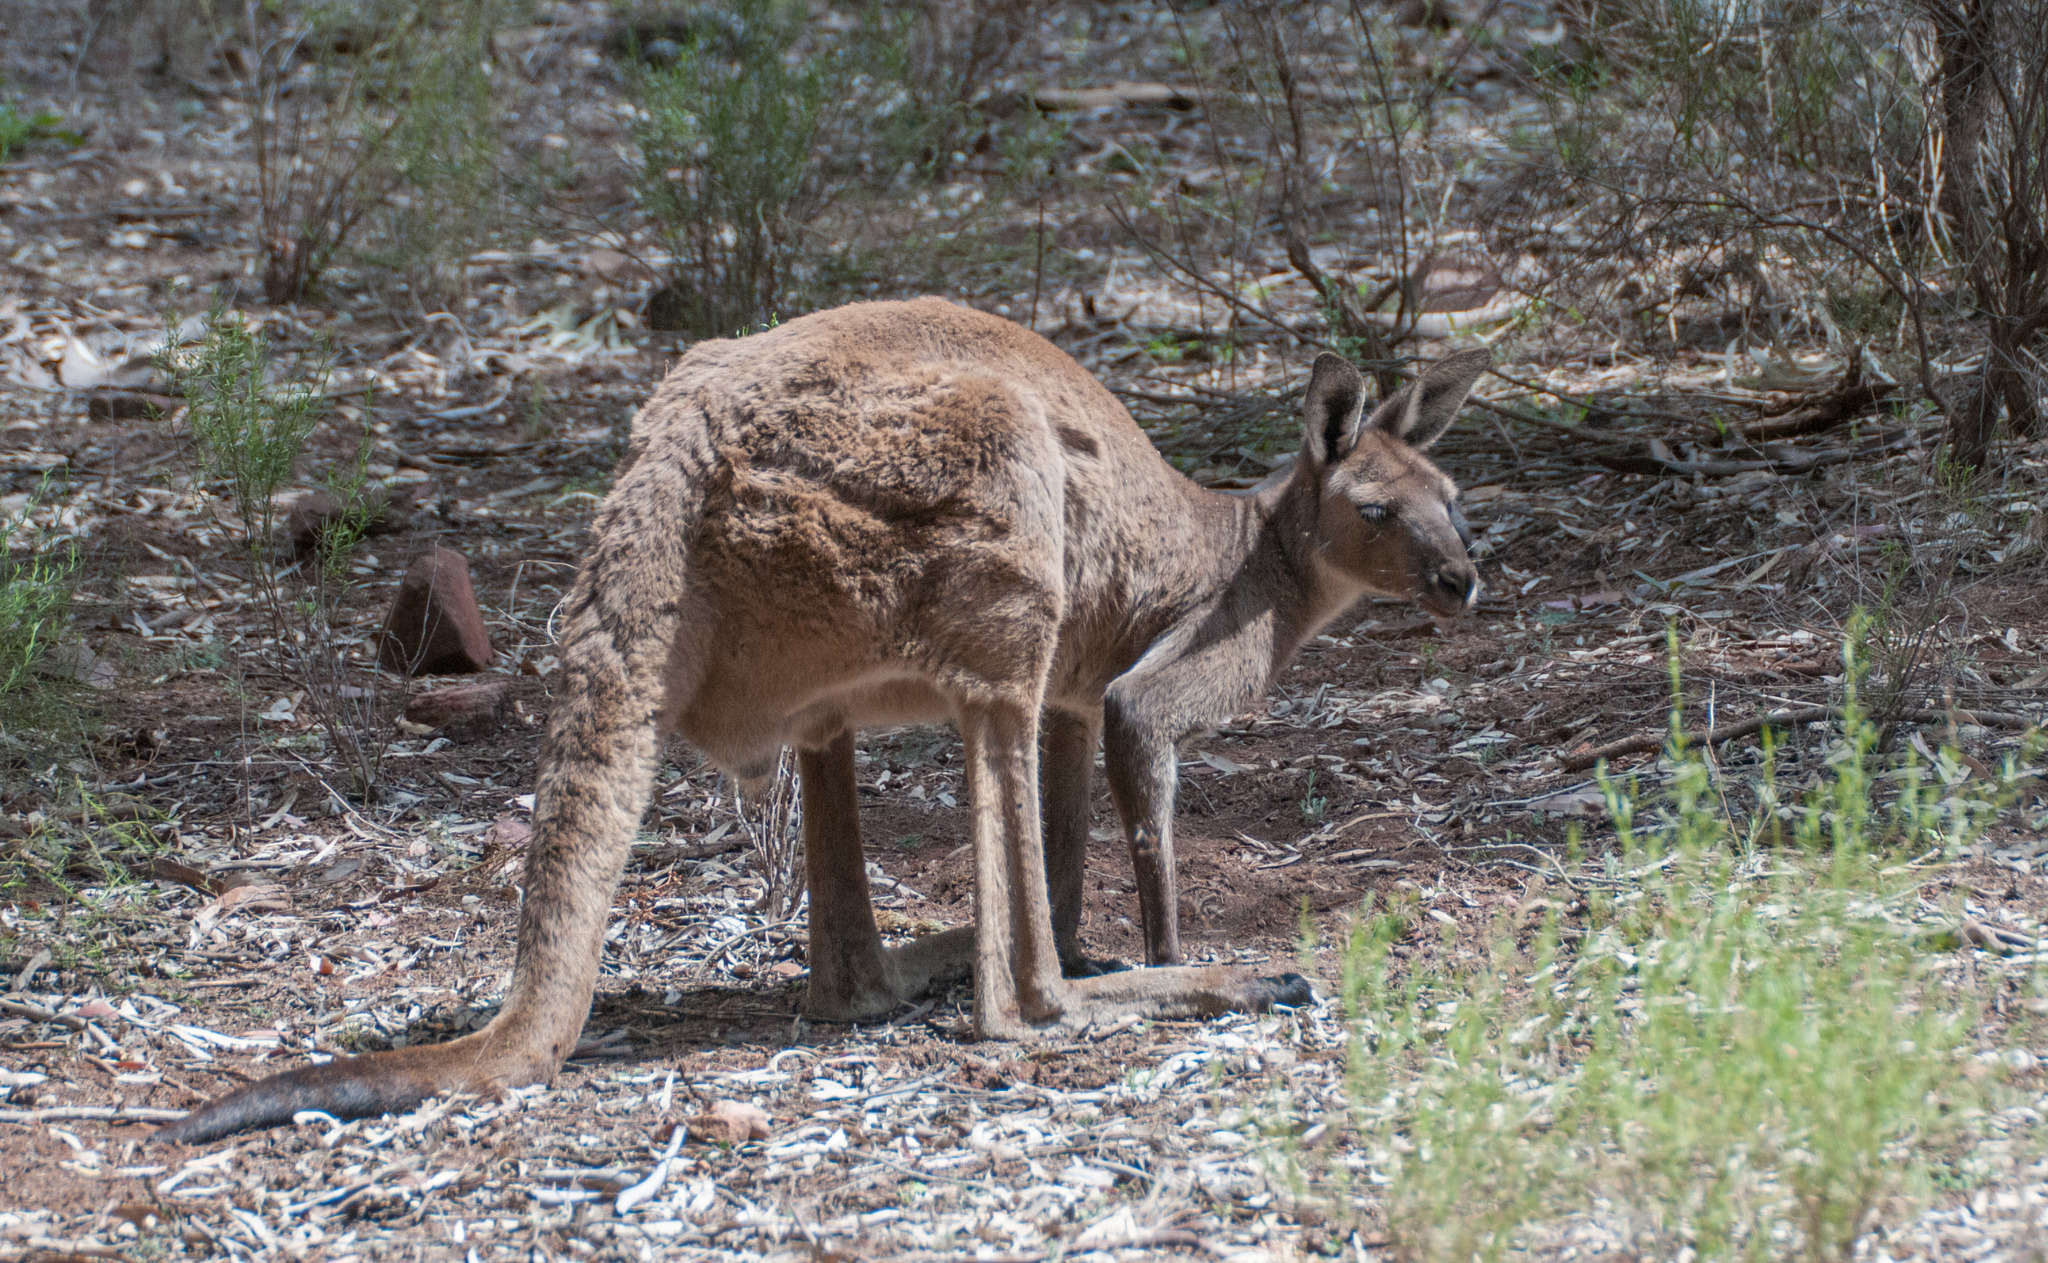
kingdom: Animalia
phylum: Chordata
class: Mammalia
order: Diprotodontia
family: Macropodidae
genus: Macropus
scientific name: Macropus fuliginosus
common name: Western grey kangaroo
